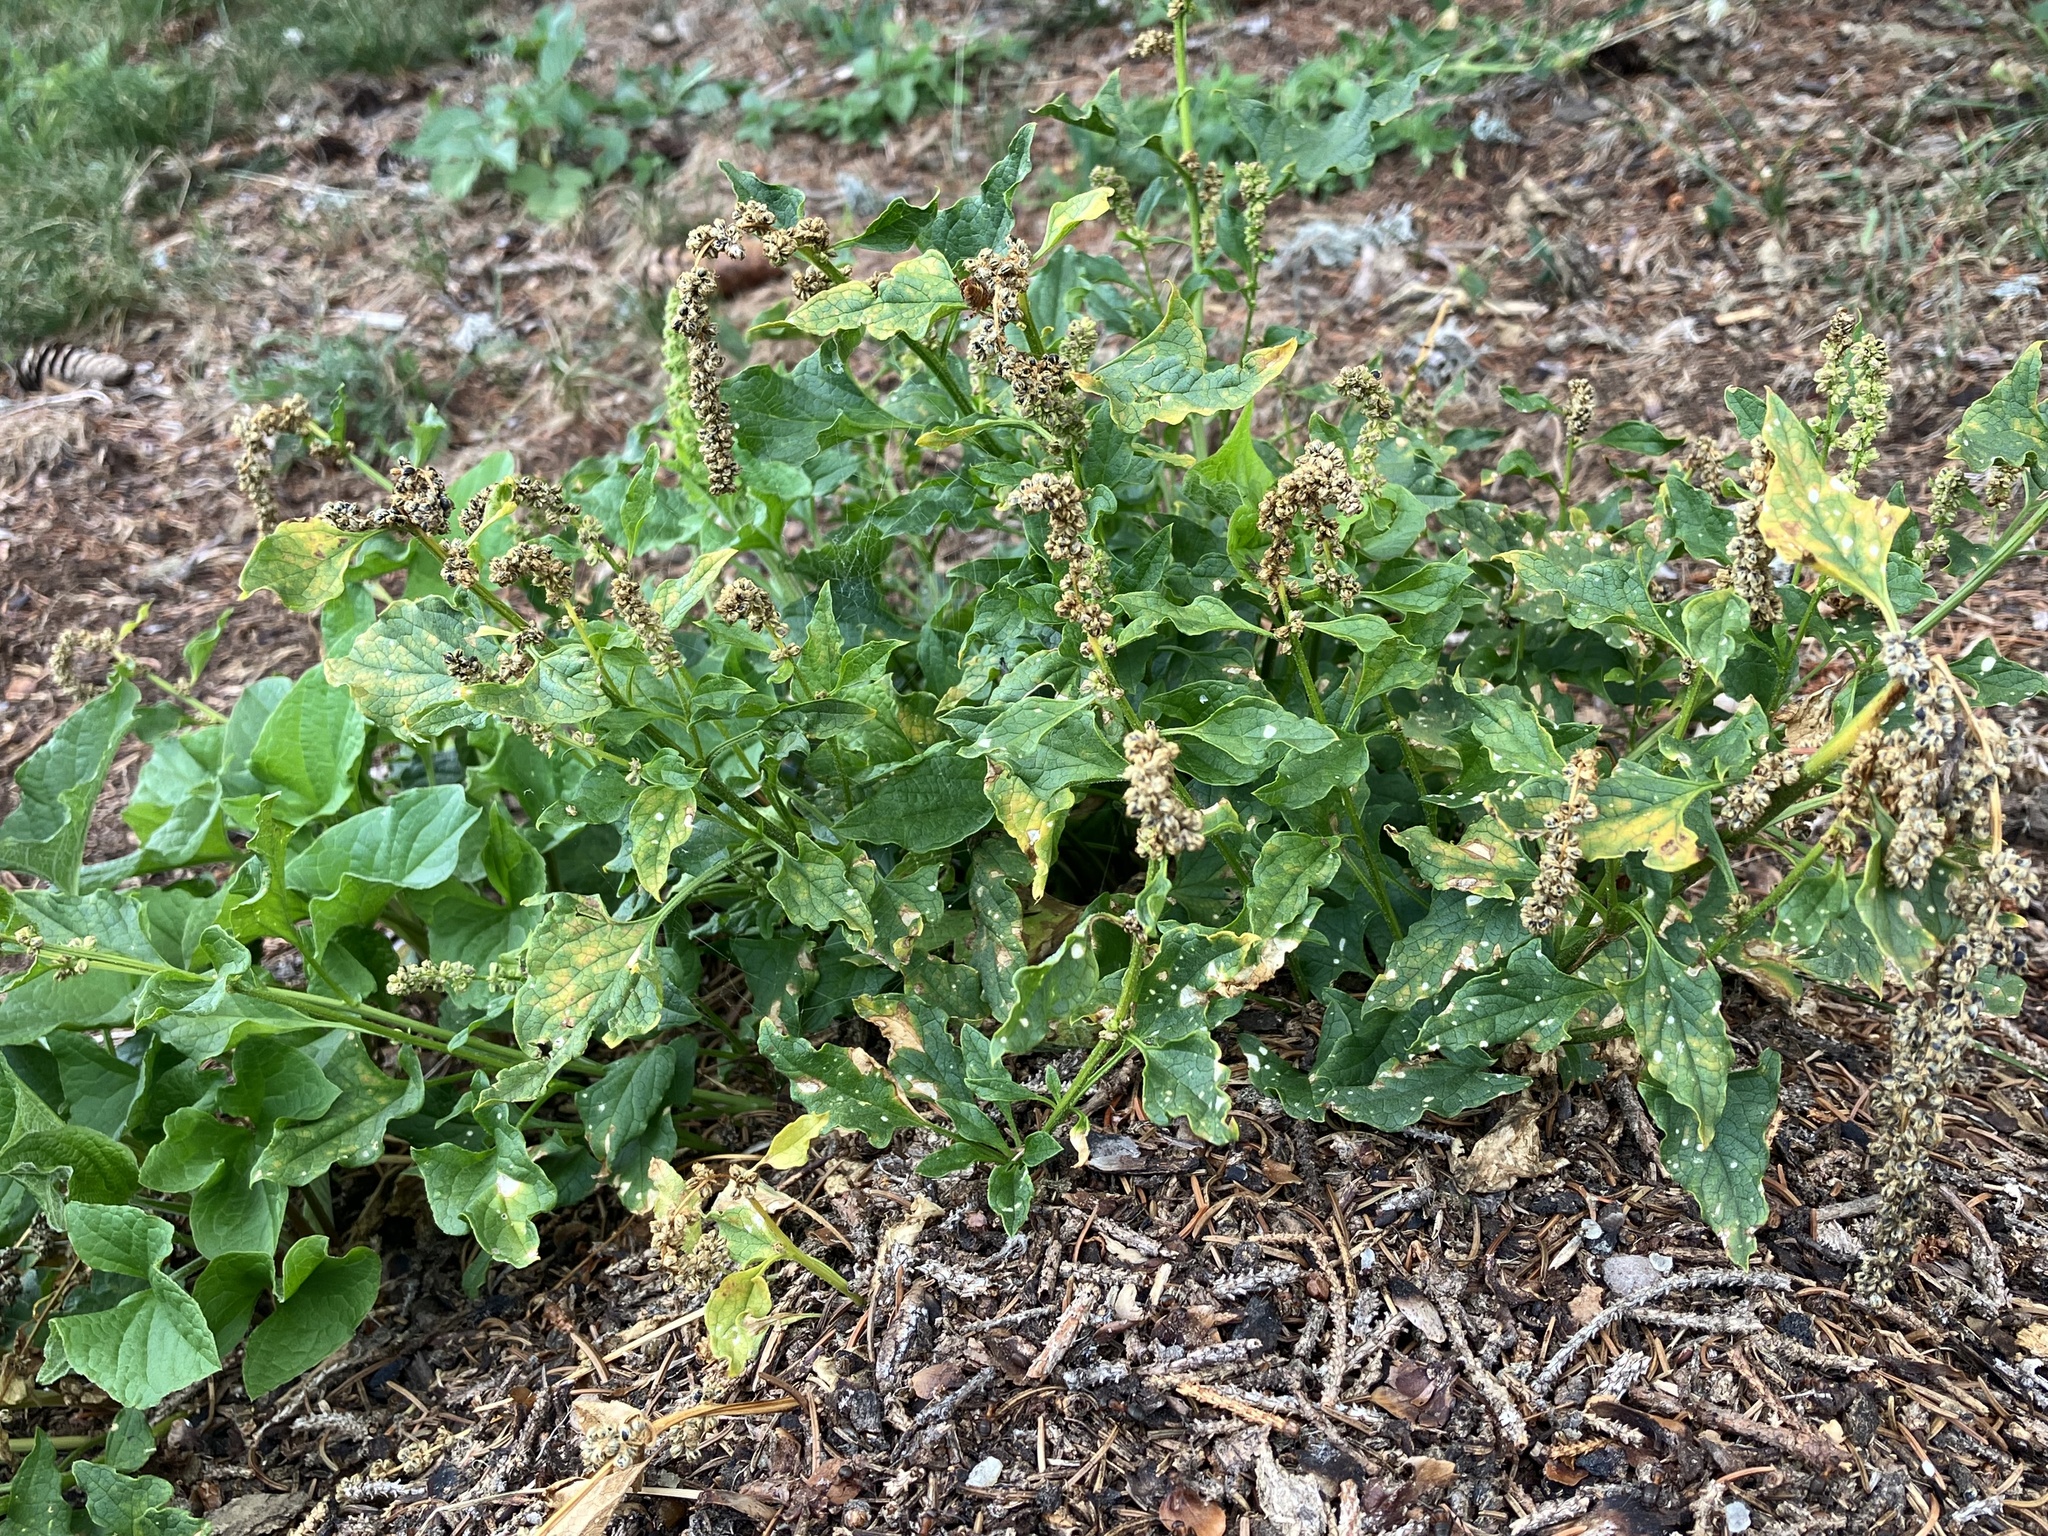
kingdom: Plantae
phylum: Tracheophyta
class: Magnoliopsida
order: Caryophyllales
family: Amaranthaceae
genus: Blitum
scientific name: Blitum bonus-henricus
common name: Good king henry
